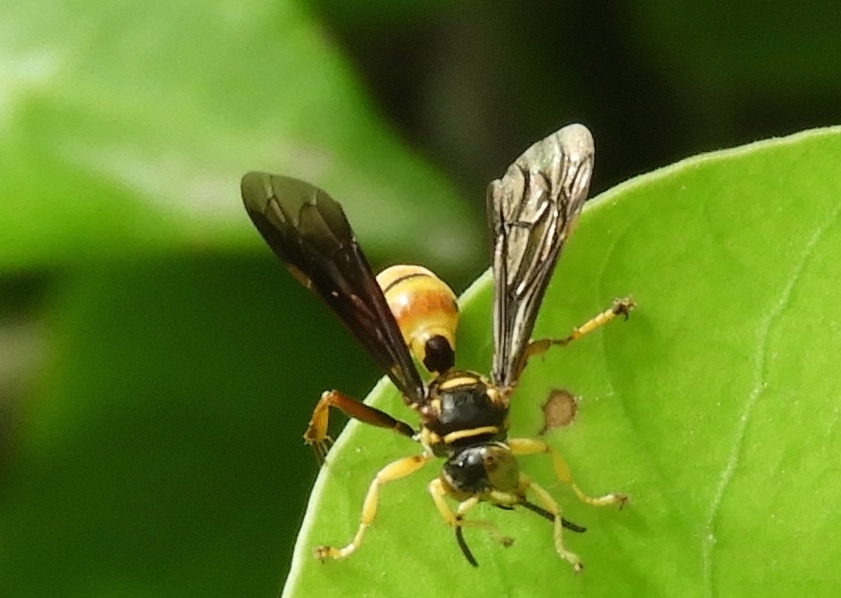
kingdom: Animalia
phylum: Arthropoda
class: Insecta
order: Hymenoptera
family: Crabronidae
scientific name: Crabronidae
